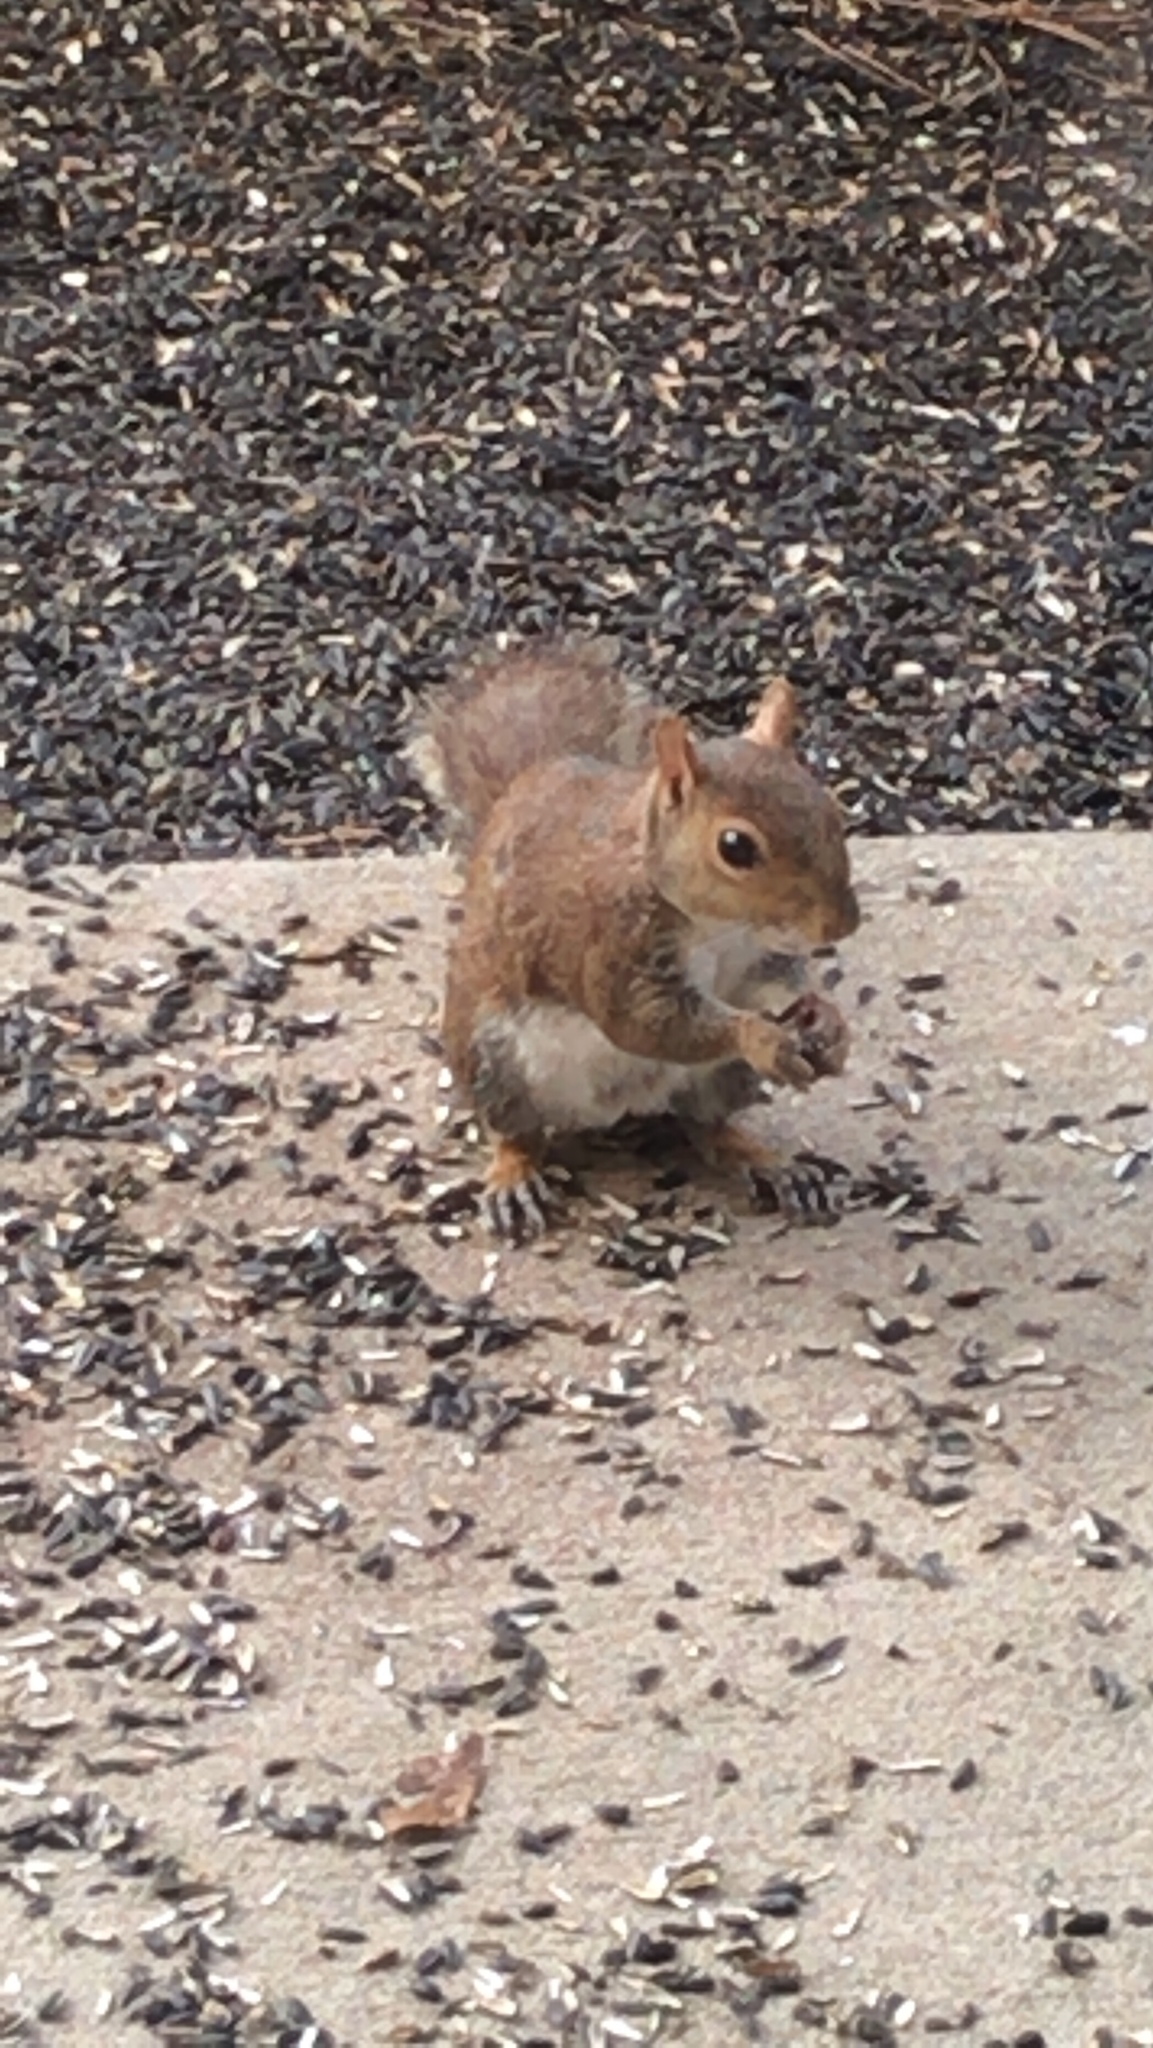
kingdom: Animalia
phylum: Chordata
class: Mammalia
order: Rodentia
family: Sciuridae
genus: Sciurus
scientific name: Sciurus carolinensis
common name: Eastern gray squirrel
